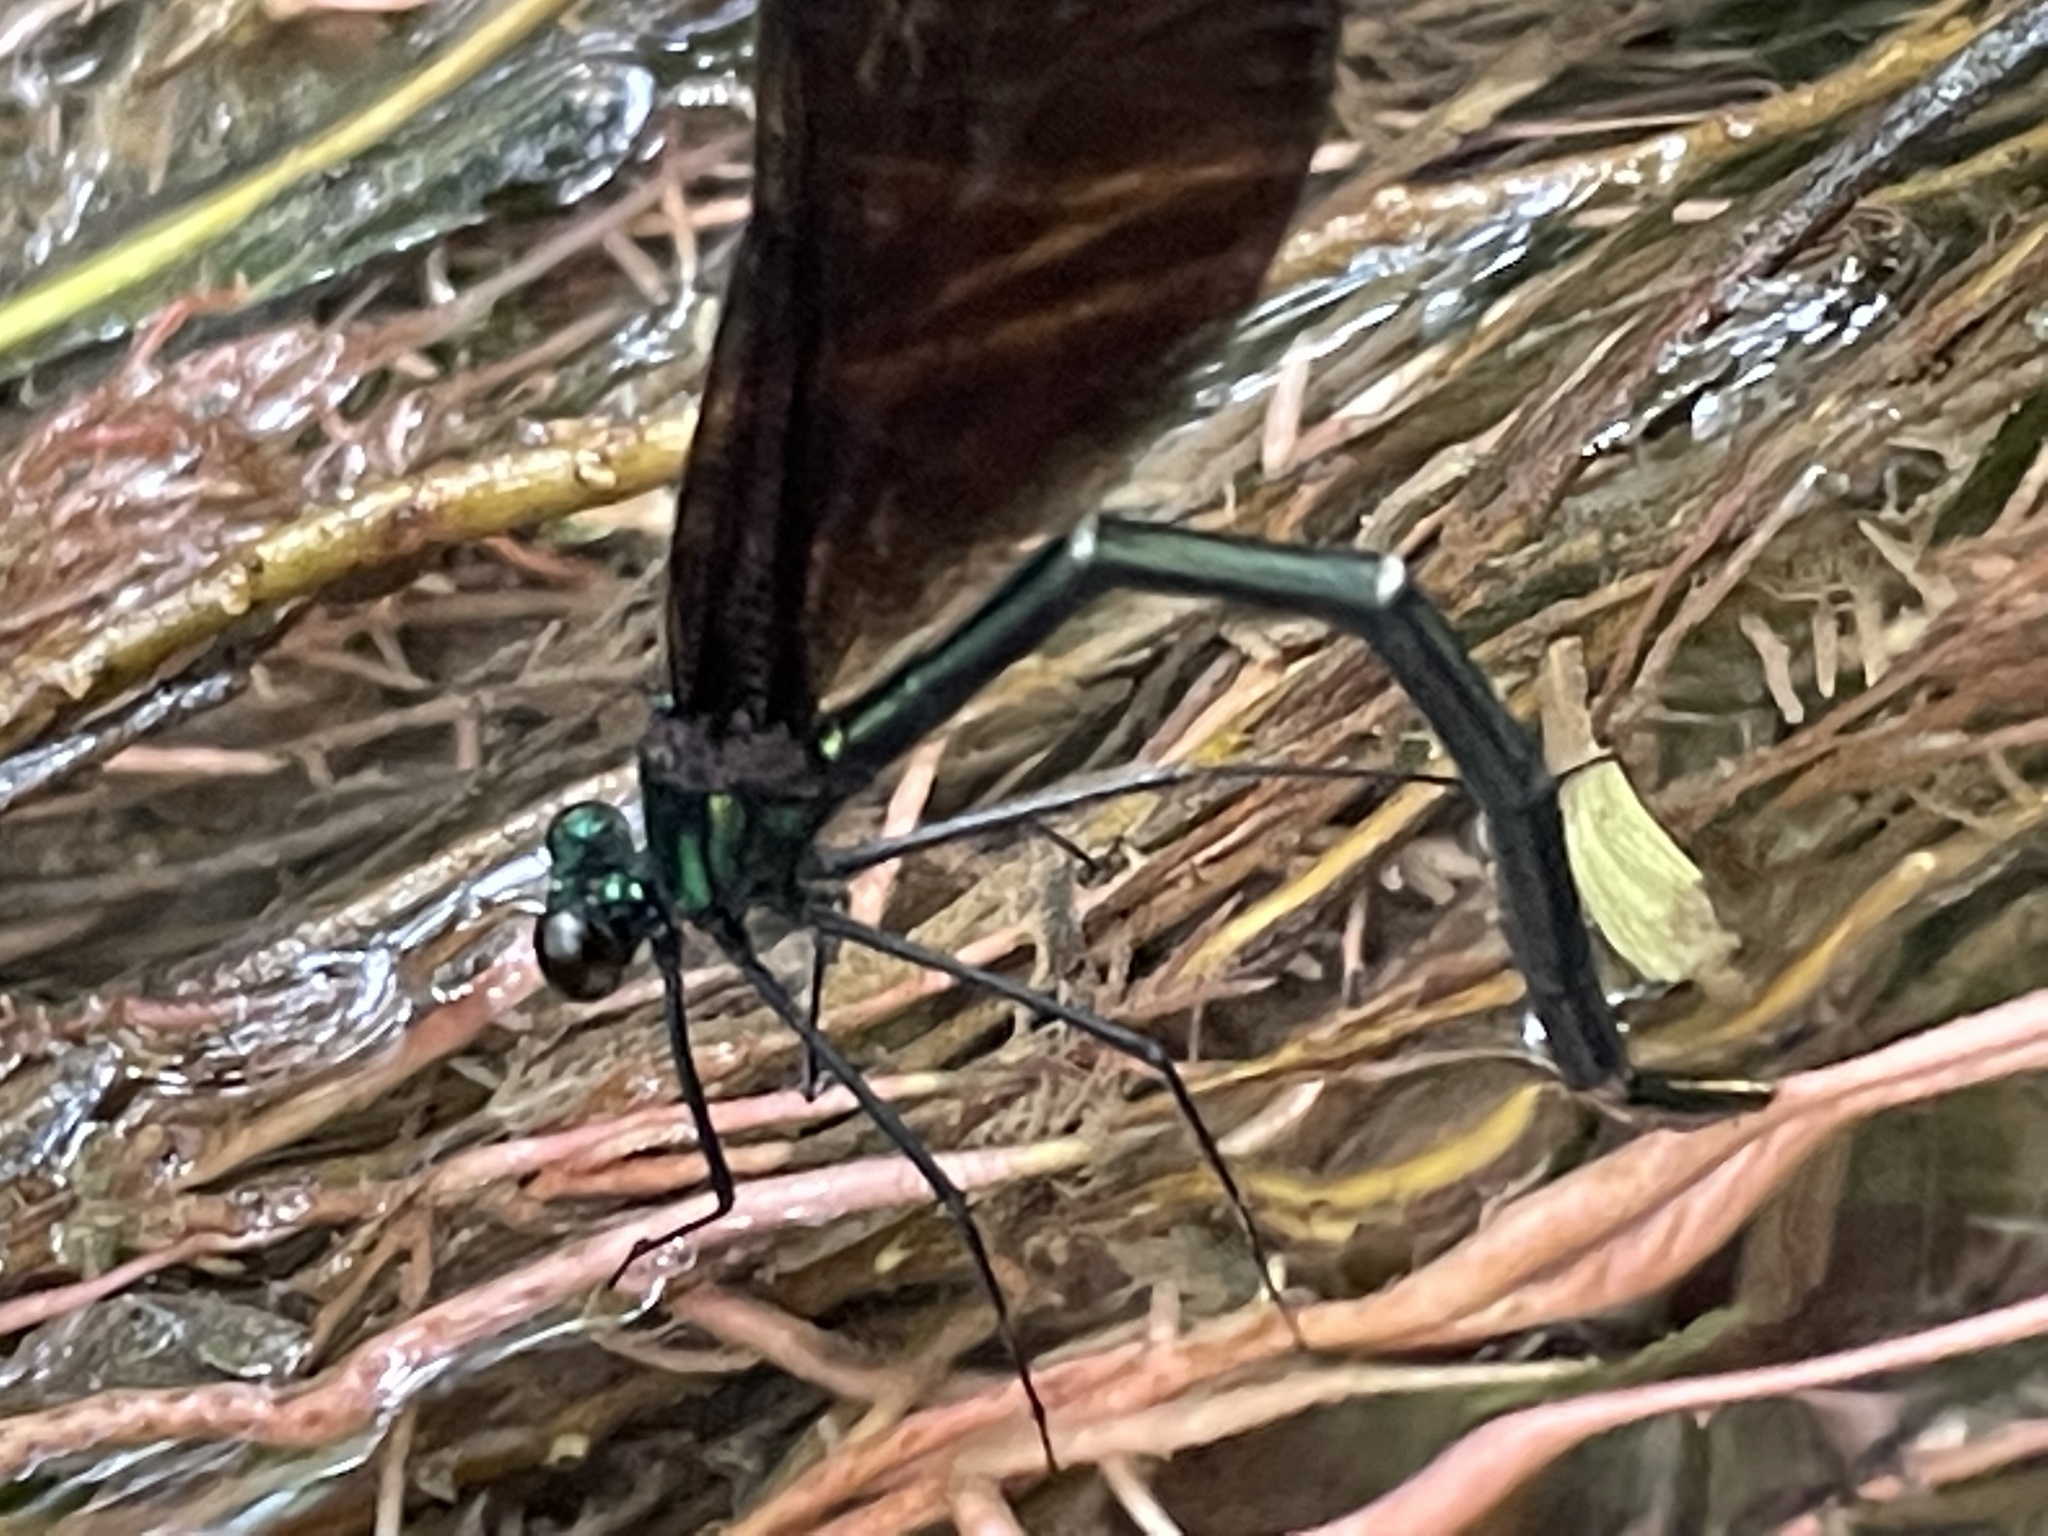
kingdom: Animalia
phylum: Arthropoda
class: Insecta
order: Odonata
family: Calopterygidae
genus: Calopteryx
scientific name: Calopteryx maculata
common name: Ebony jewelwing
